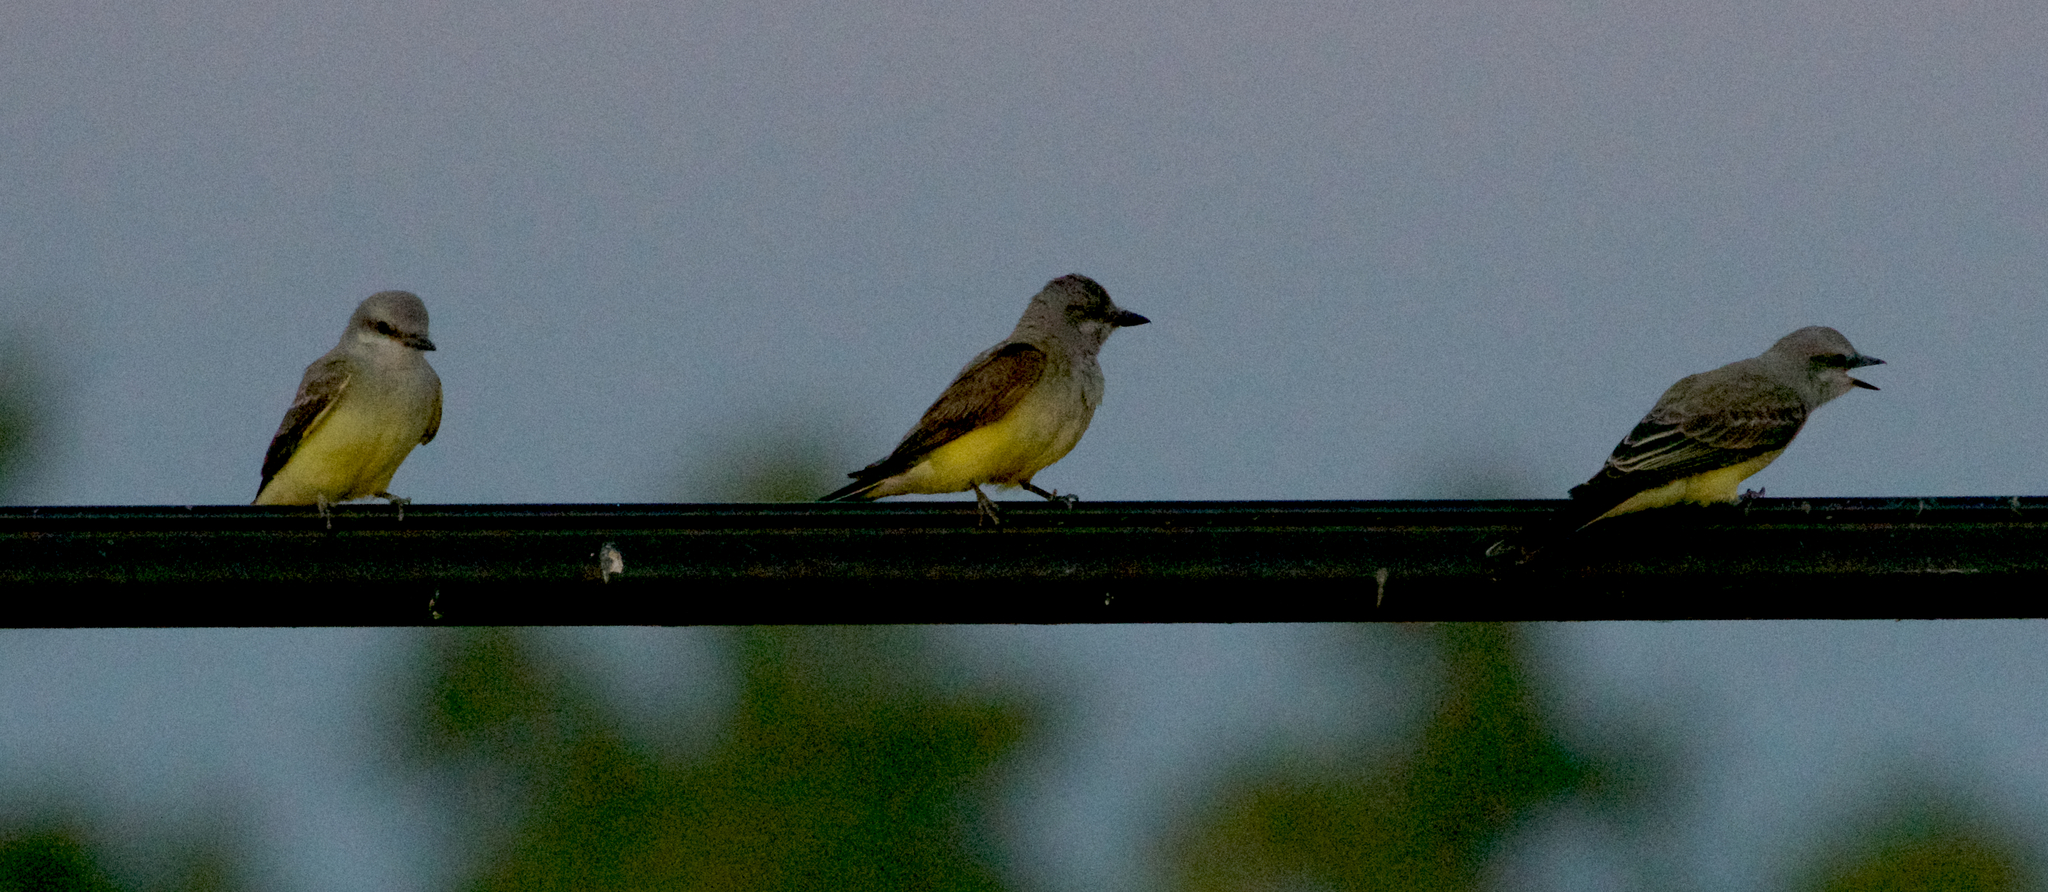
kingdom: Animalia
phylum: Chordata
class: Aves
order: Passeriformes
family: Tyrannidae
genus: Tyrannus
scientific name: Tyrannus verticalis
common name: Western kingbird
